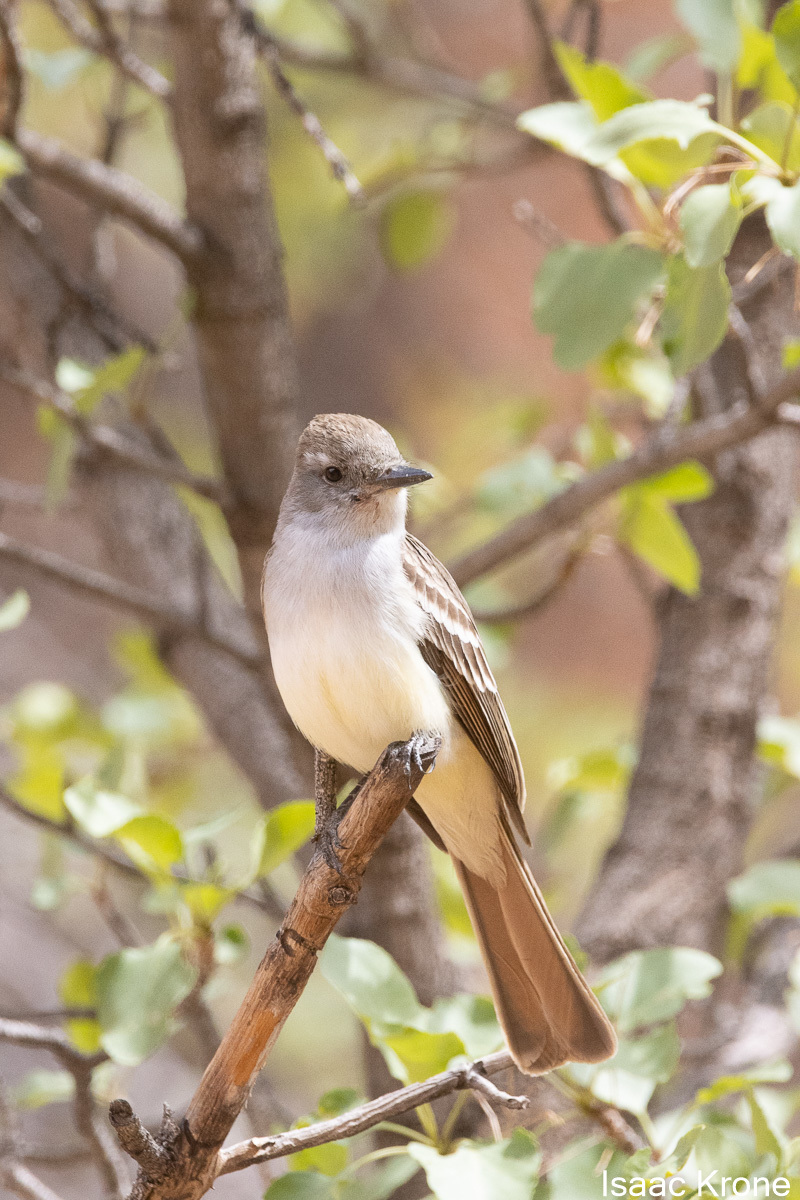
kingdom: Animalia
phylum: Chordata
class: Aves
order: Passeriformes
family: Tyrannidae
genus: Myiarchus
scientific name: Myiarchus cinerascens
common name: Ash-throated flycatcher
